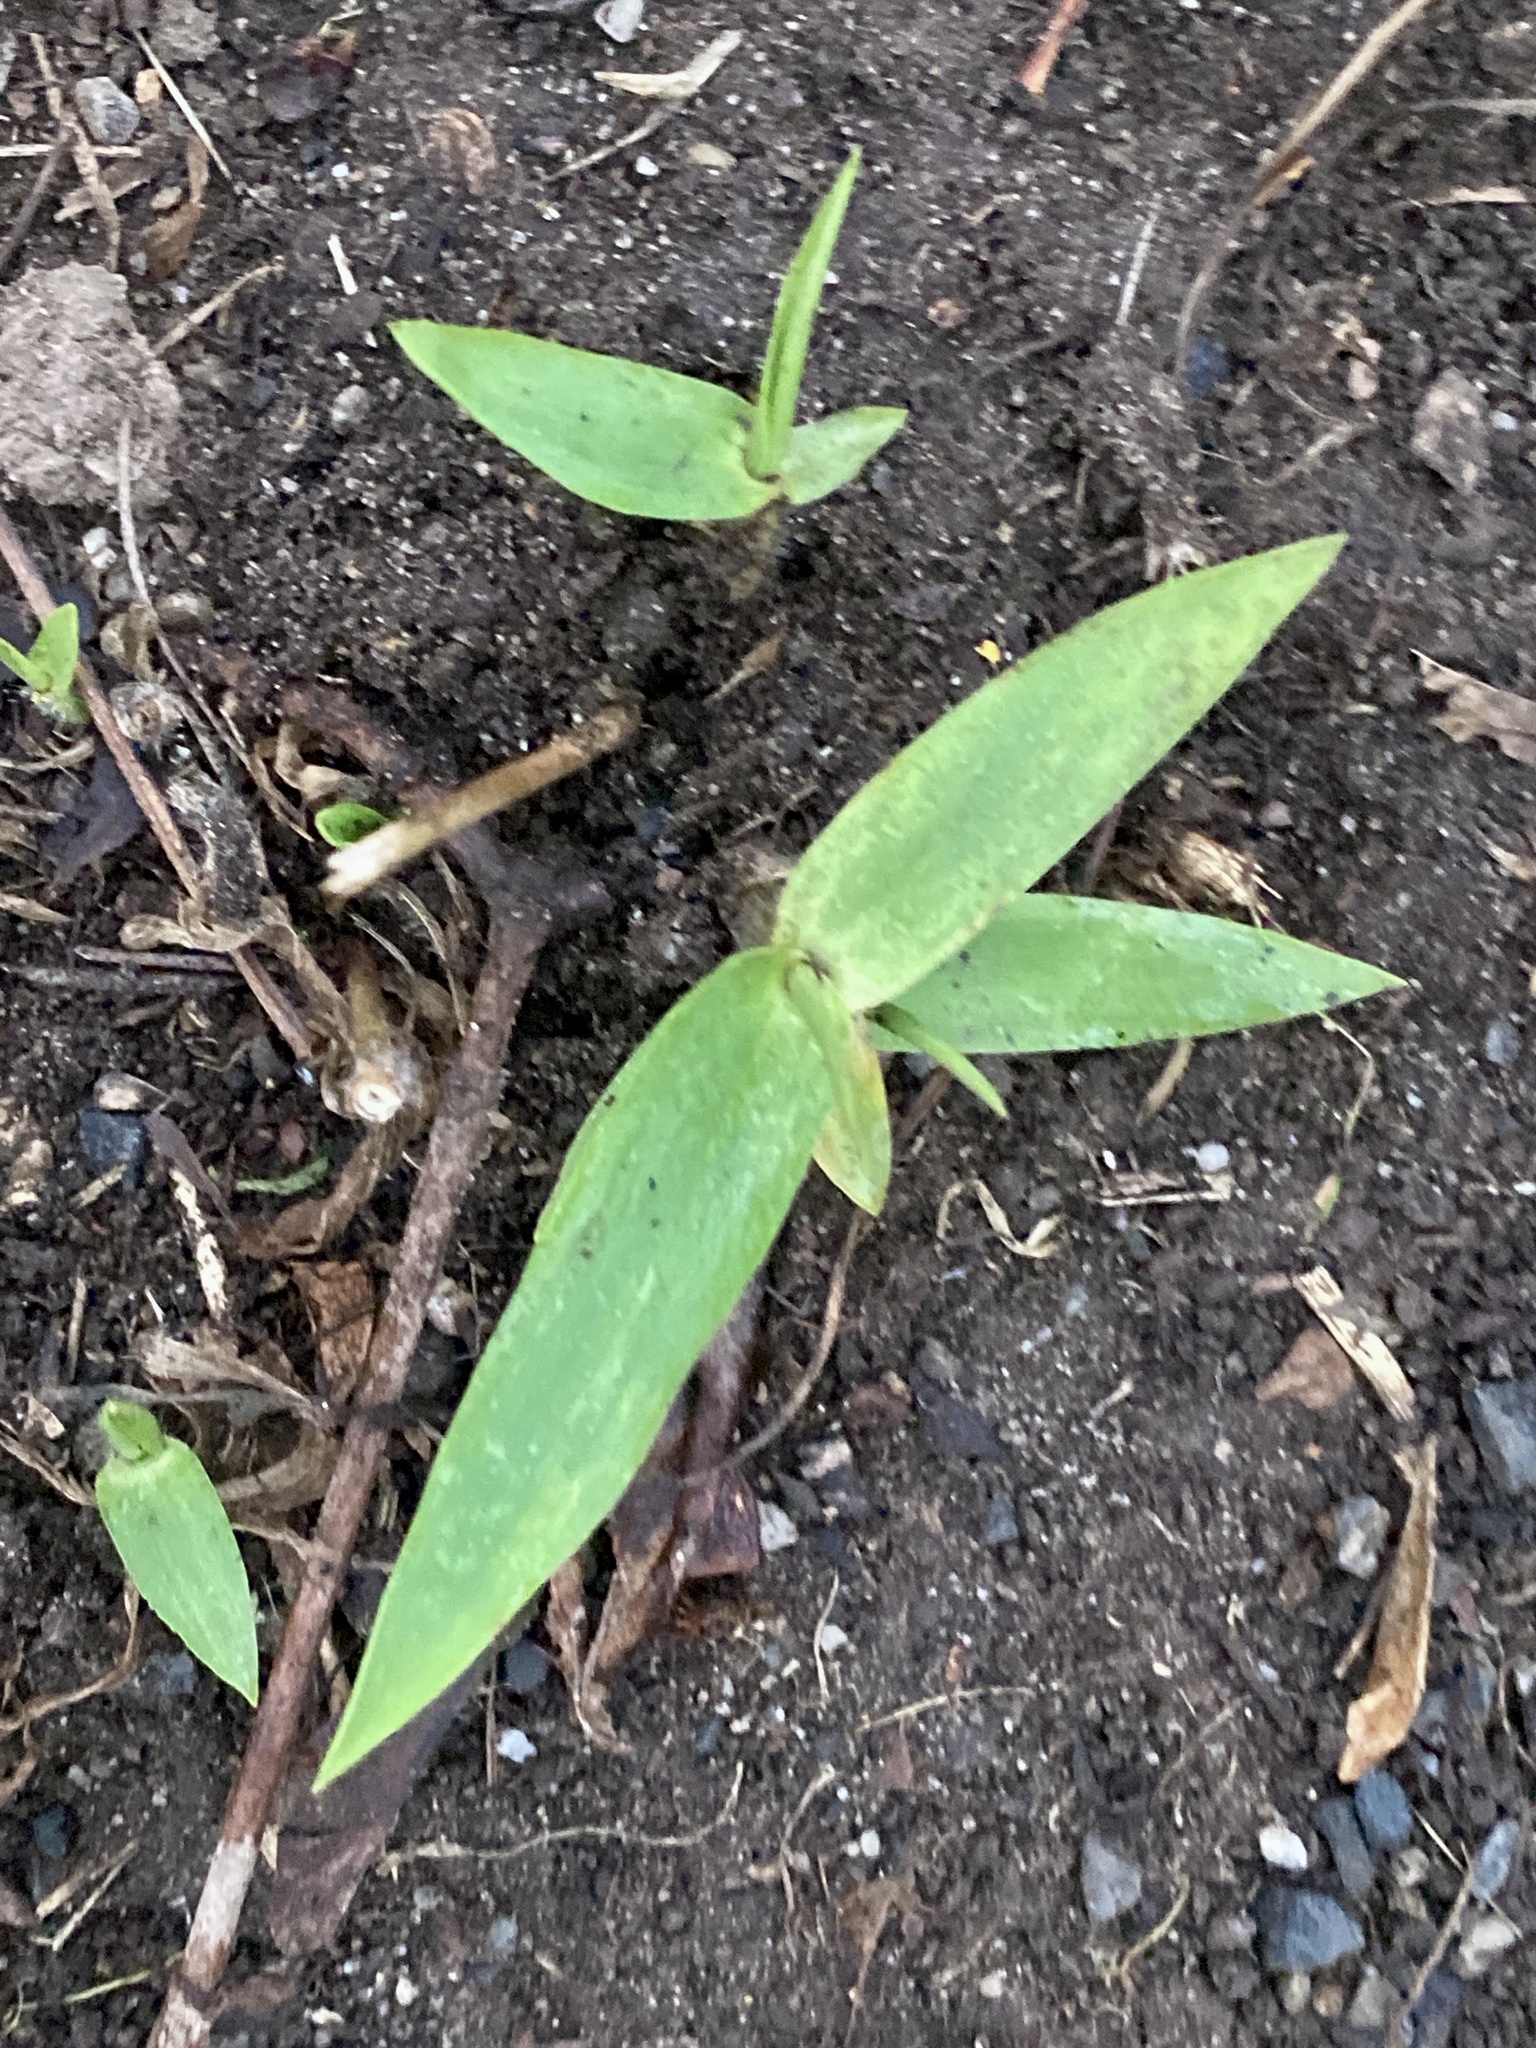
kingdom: Plantae
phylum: Tracheophyta
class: Liliopsida
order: Poales
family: Poaceae
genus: Dichanthelium
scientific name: Dichanthelium clandestinum
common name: Deer-tongue grass
